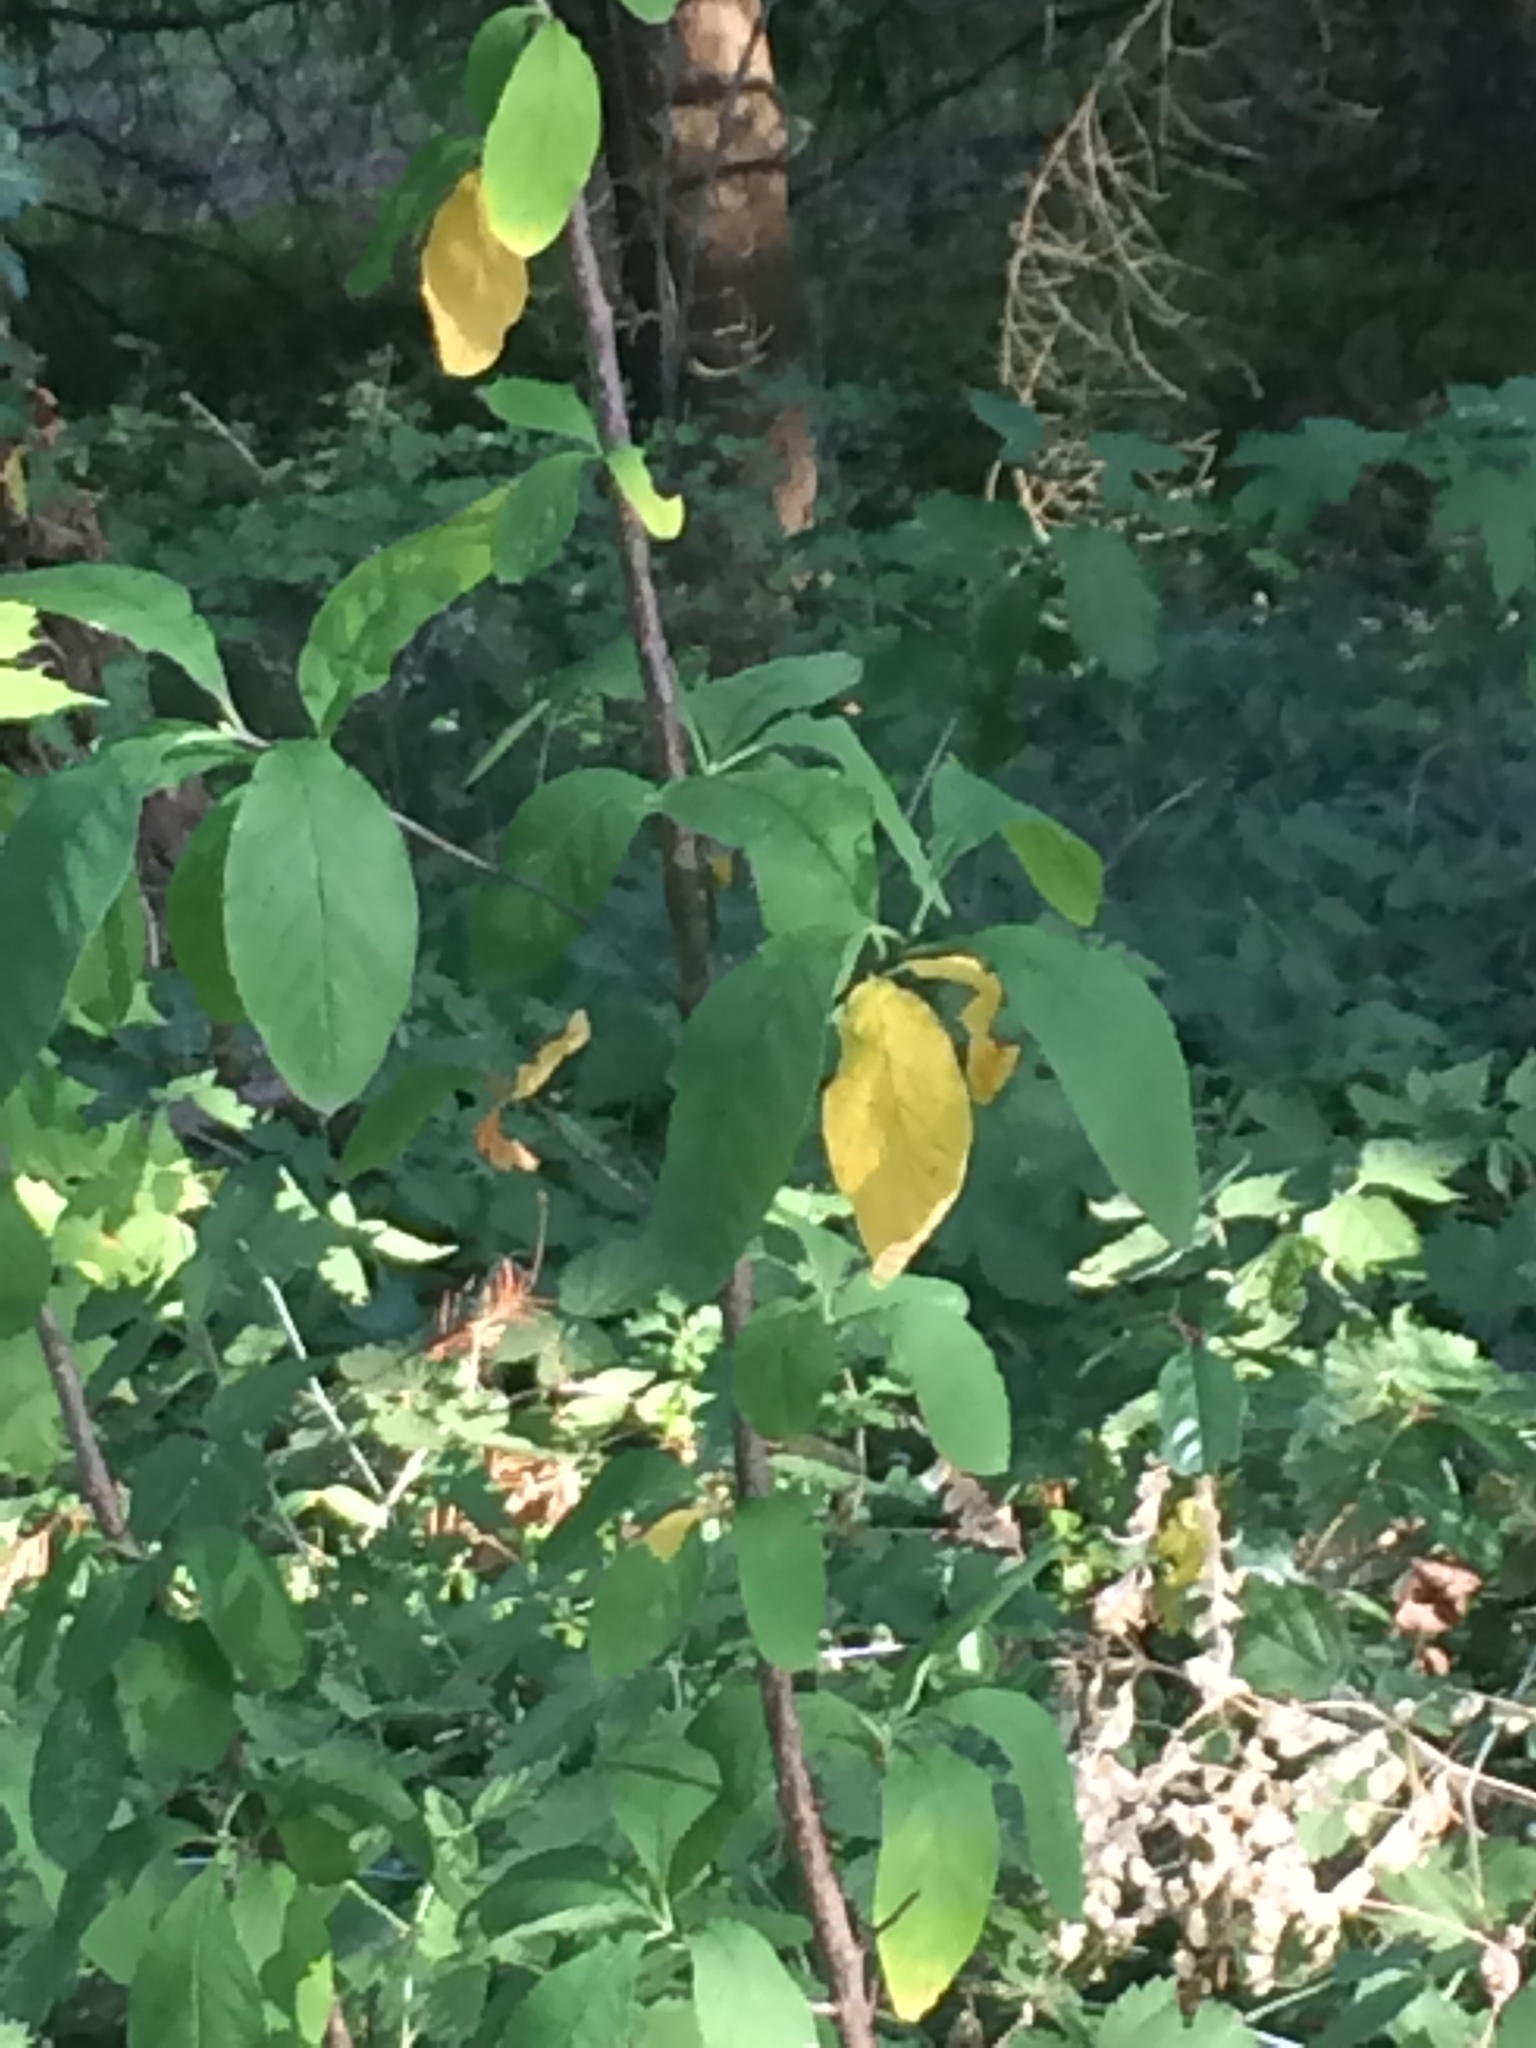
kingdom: Plantae
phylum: Tracheophyta
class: Magnoliopsida
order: Rosales
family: Rosaceae
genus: Oemleria
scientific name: Oemleria cerasiformis
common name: Osoberry
